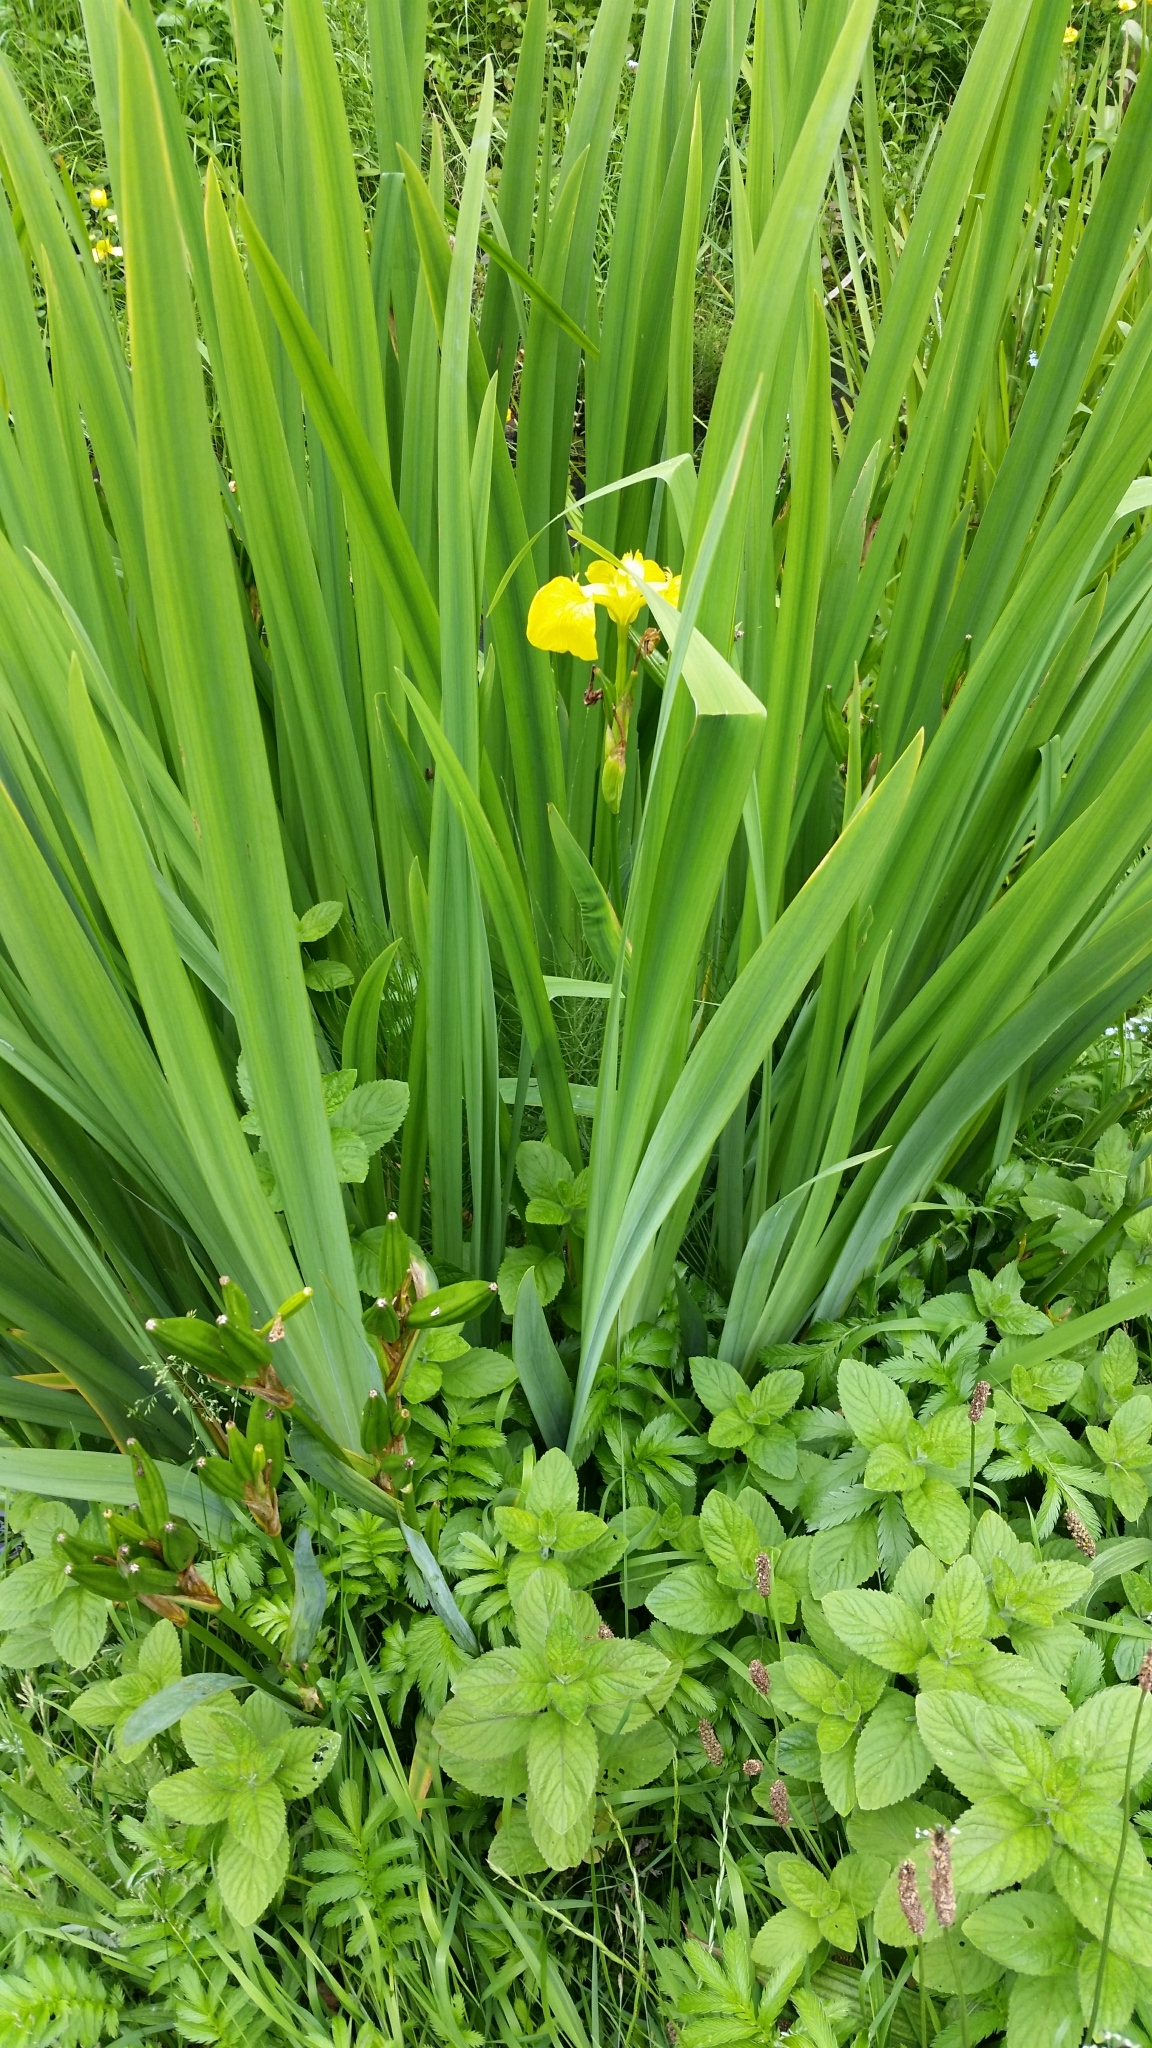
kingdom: Plantae
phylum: Tracheophyta
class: Liliopsida
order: Asparagales
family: Iridaceae
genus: Iris
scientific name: Iris pseudacorus
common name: Yellow flag
